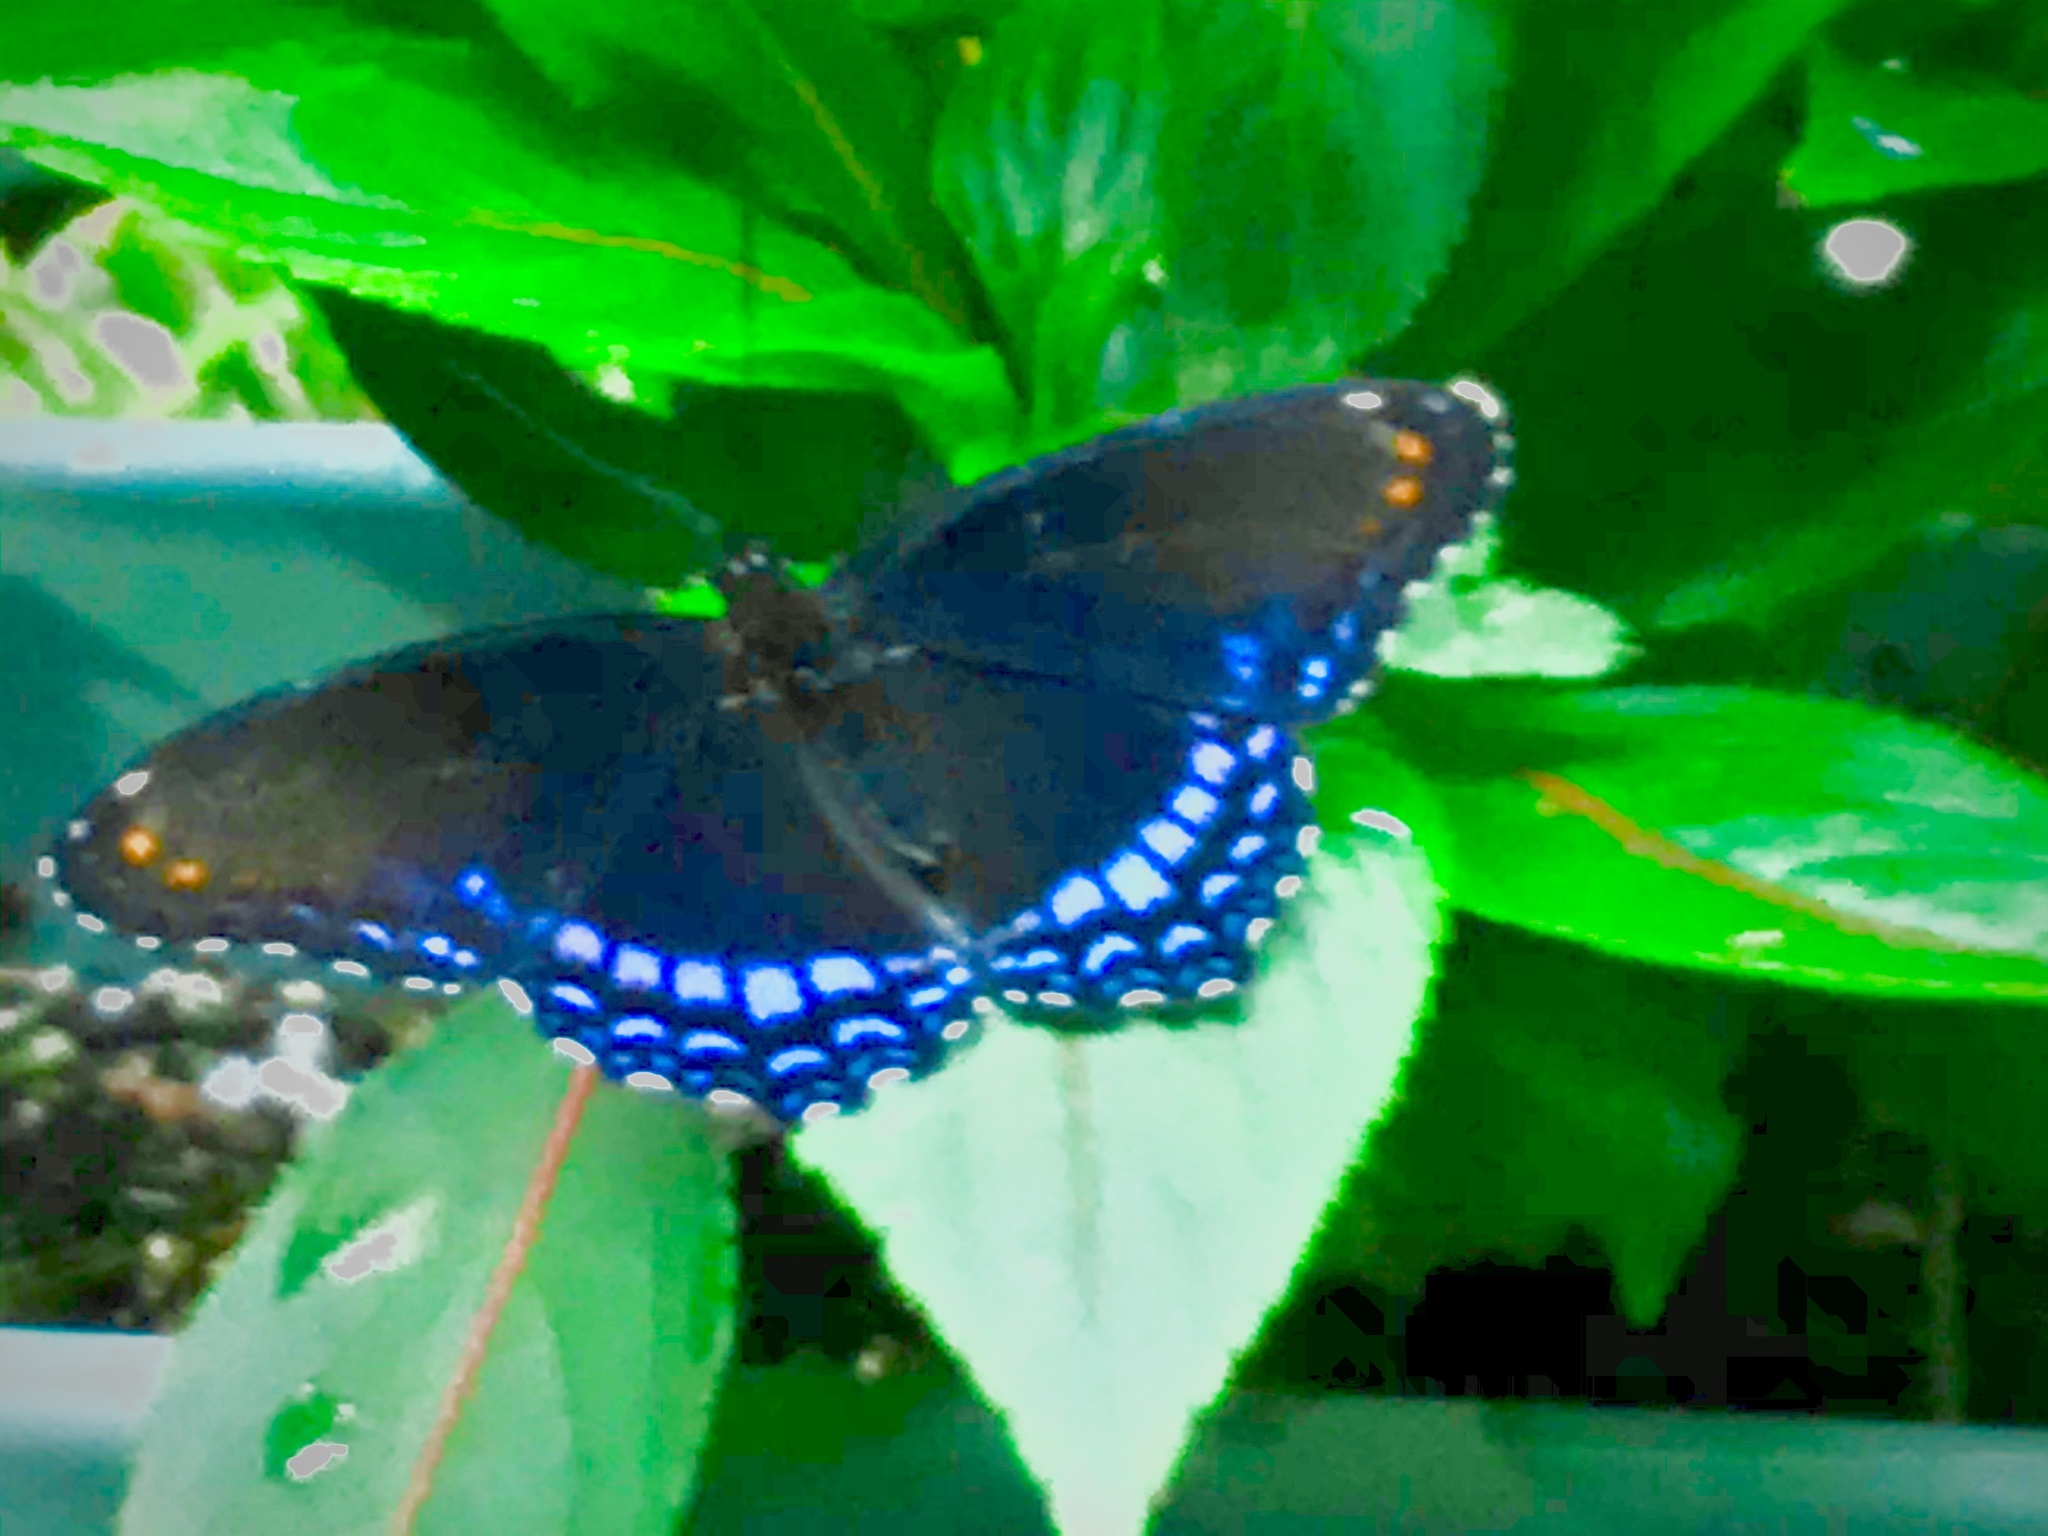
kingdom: Animalia
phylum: Arthropoda
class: Insecta
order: Lepidoptera
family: Nymphalidae
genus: Limenitis
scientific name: Limenitis arthemis
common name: Red-spotted admiral
